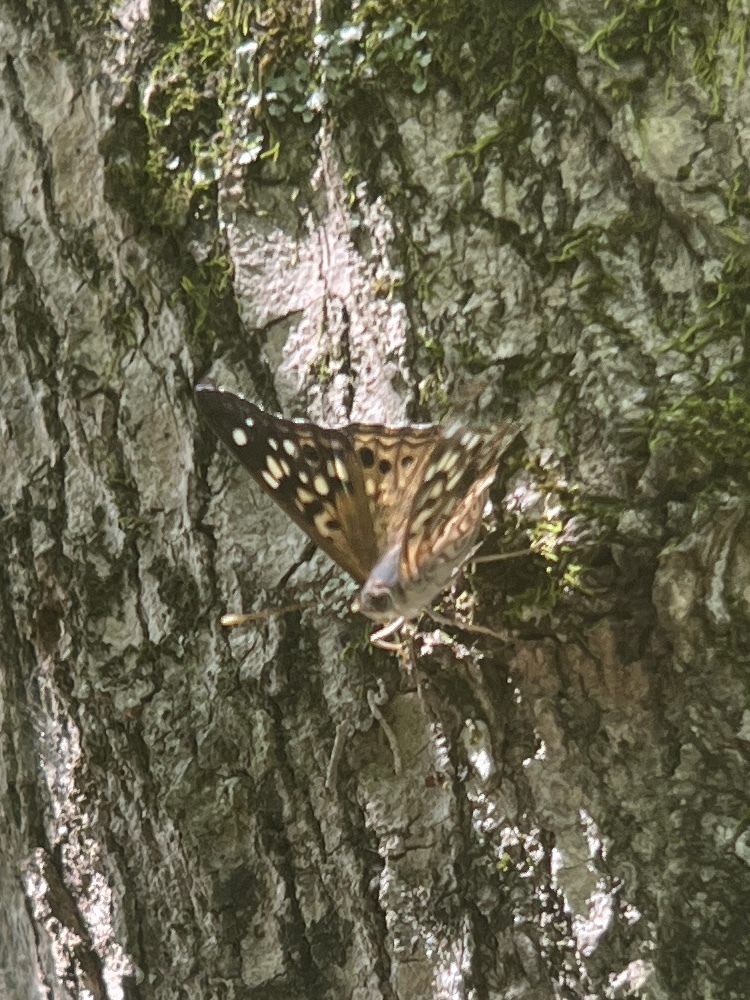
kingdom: Animalia
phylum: Arthropoda
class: Insecta
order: Lepidoptera
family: Nymphalidae
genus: Asterocampa
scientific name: Asterocampa celtis
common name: Hackberry emperor
